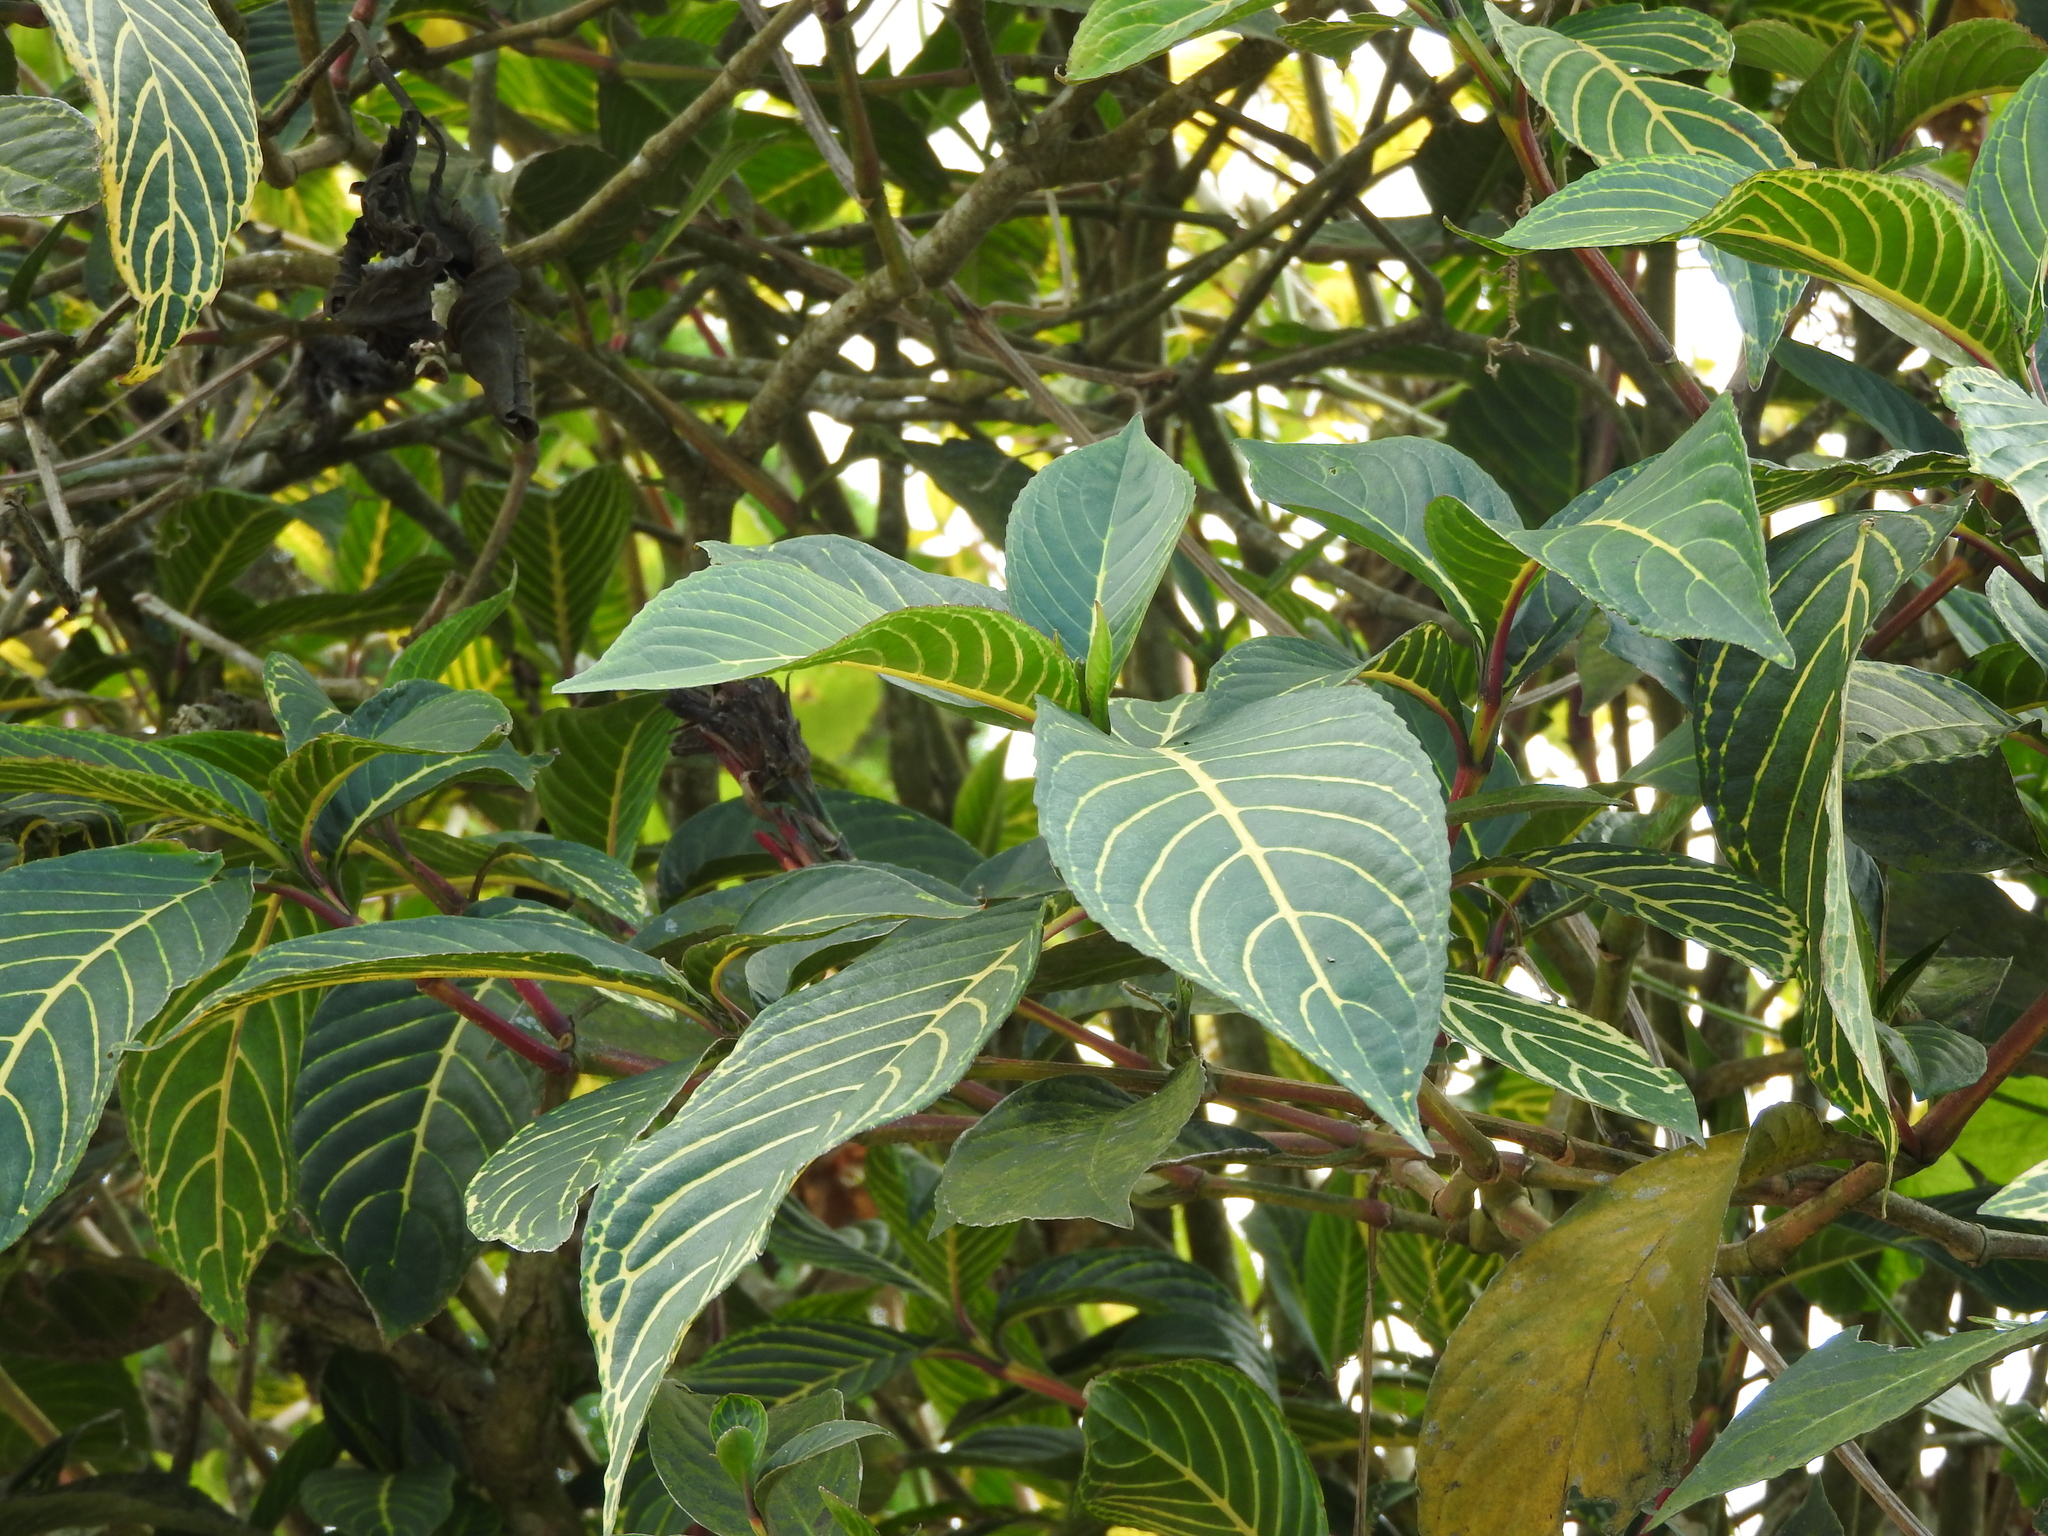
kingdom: Plantae
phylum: Tracheophyta
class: Magnoliopsida
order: Lamiales
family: Acanthaceae
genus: Sanchezia
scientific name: Sanchezia parvibracteata
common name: Sanchezia
